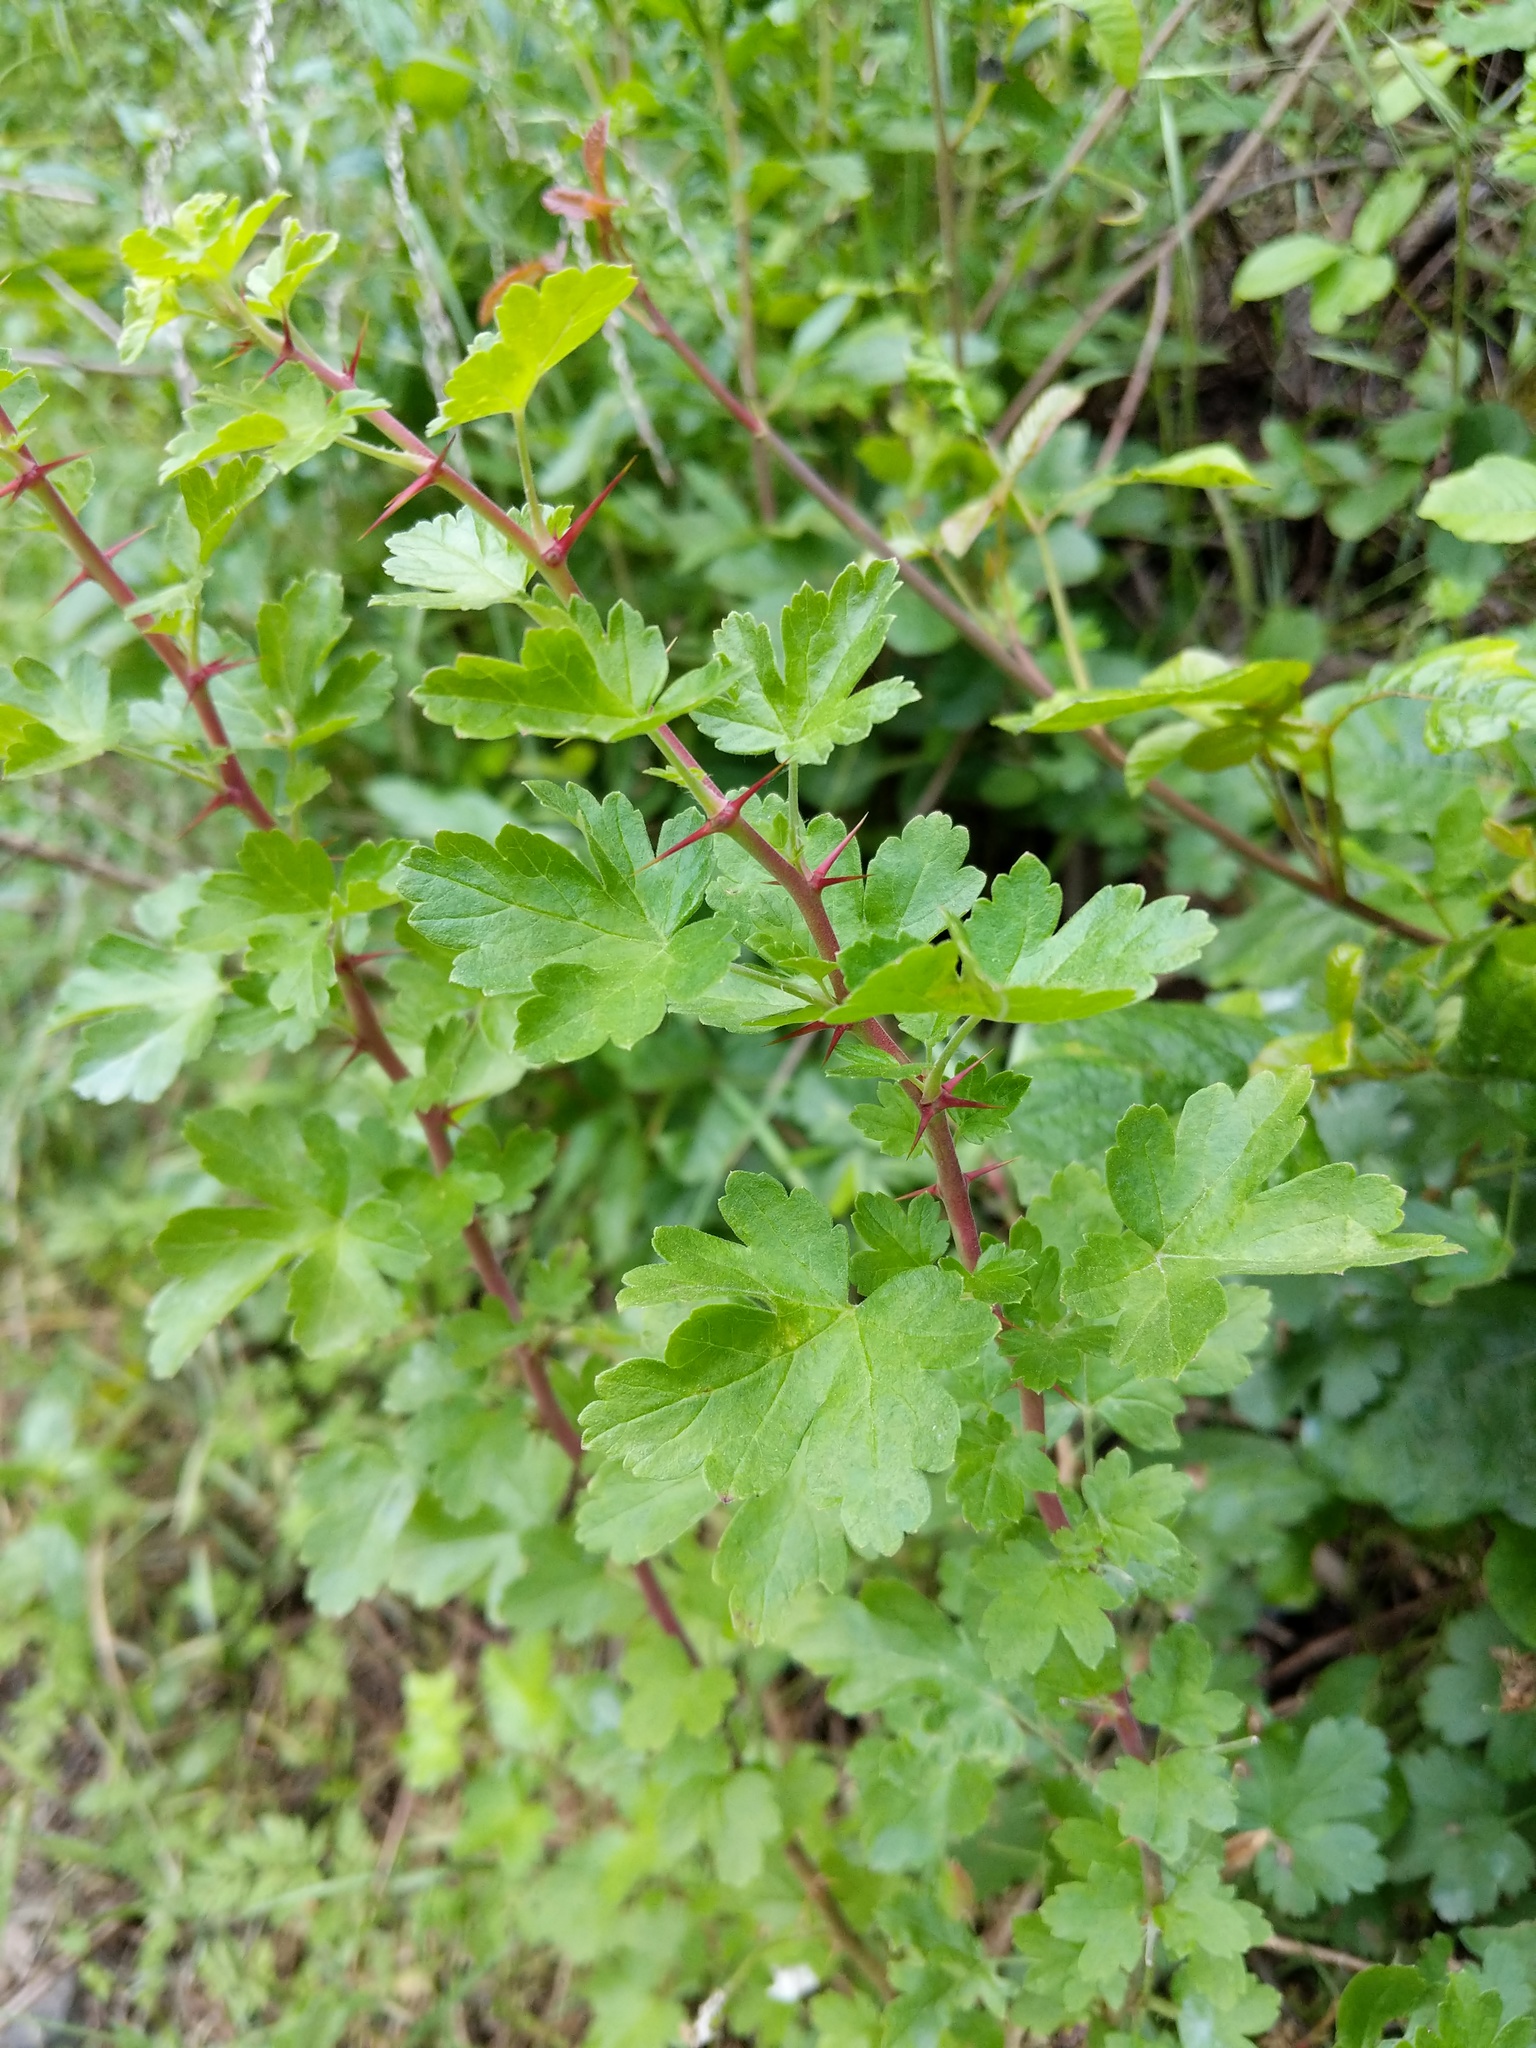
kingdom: Plantae
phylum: Tracheophyta
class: Magnoliopsida
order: Saxifragales
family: Grossulariaceae
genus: Ribes
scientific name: Ribes californicum
